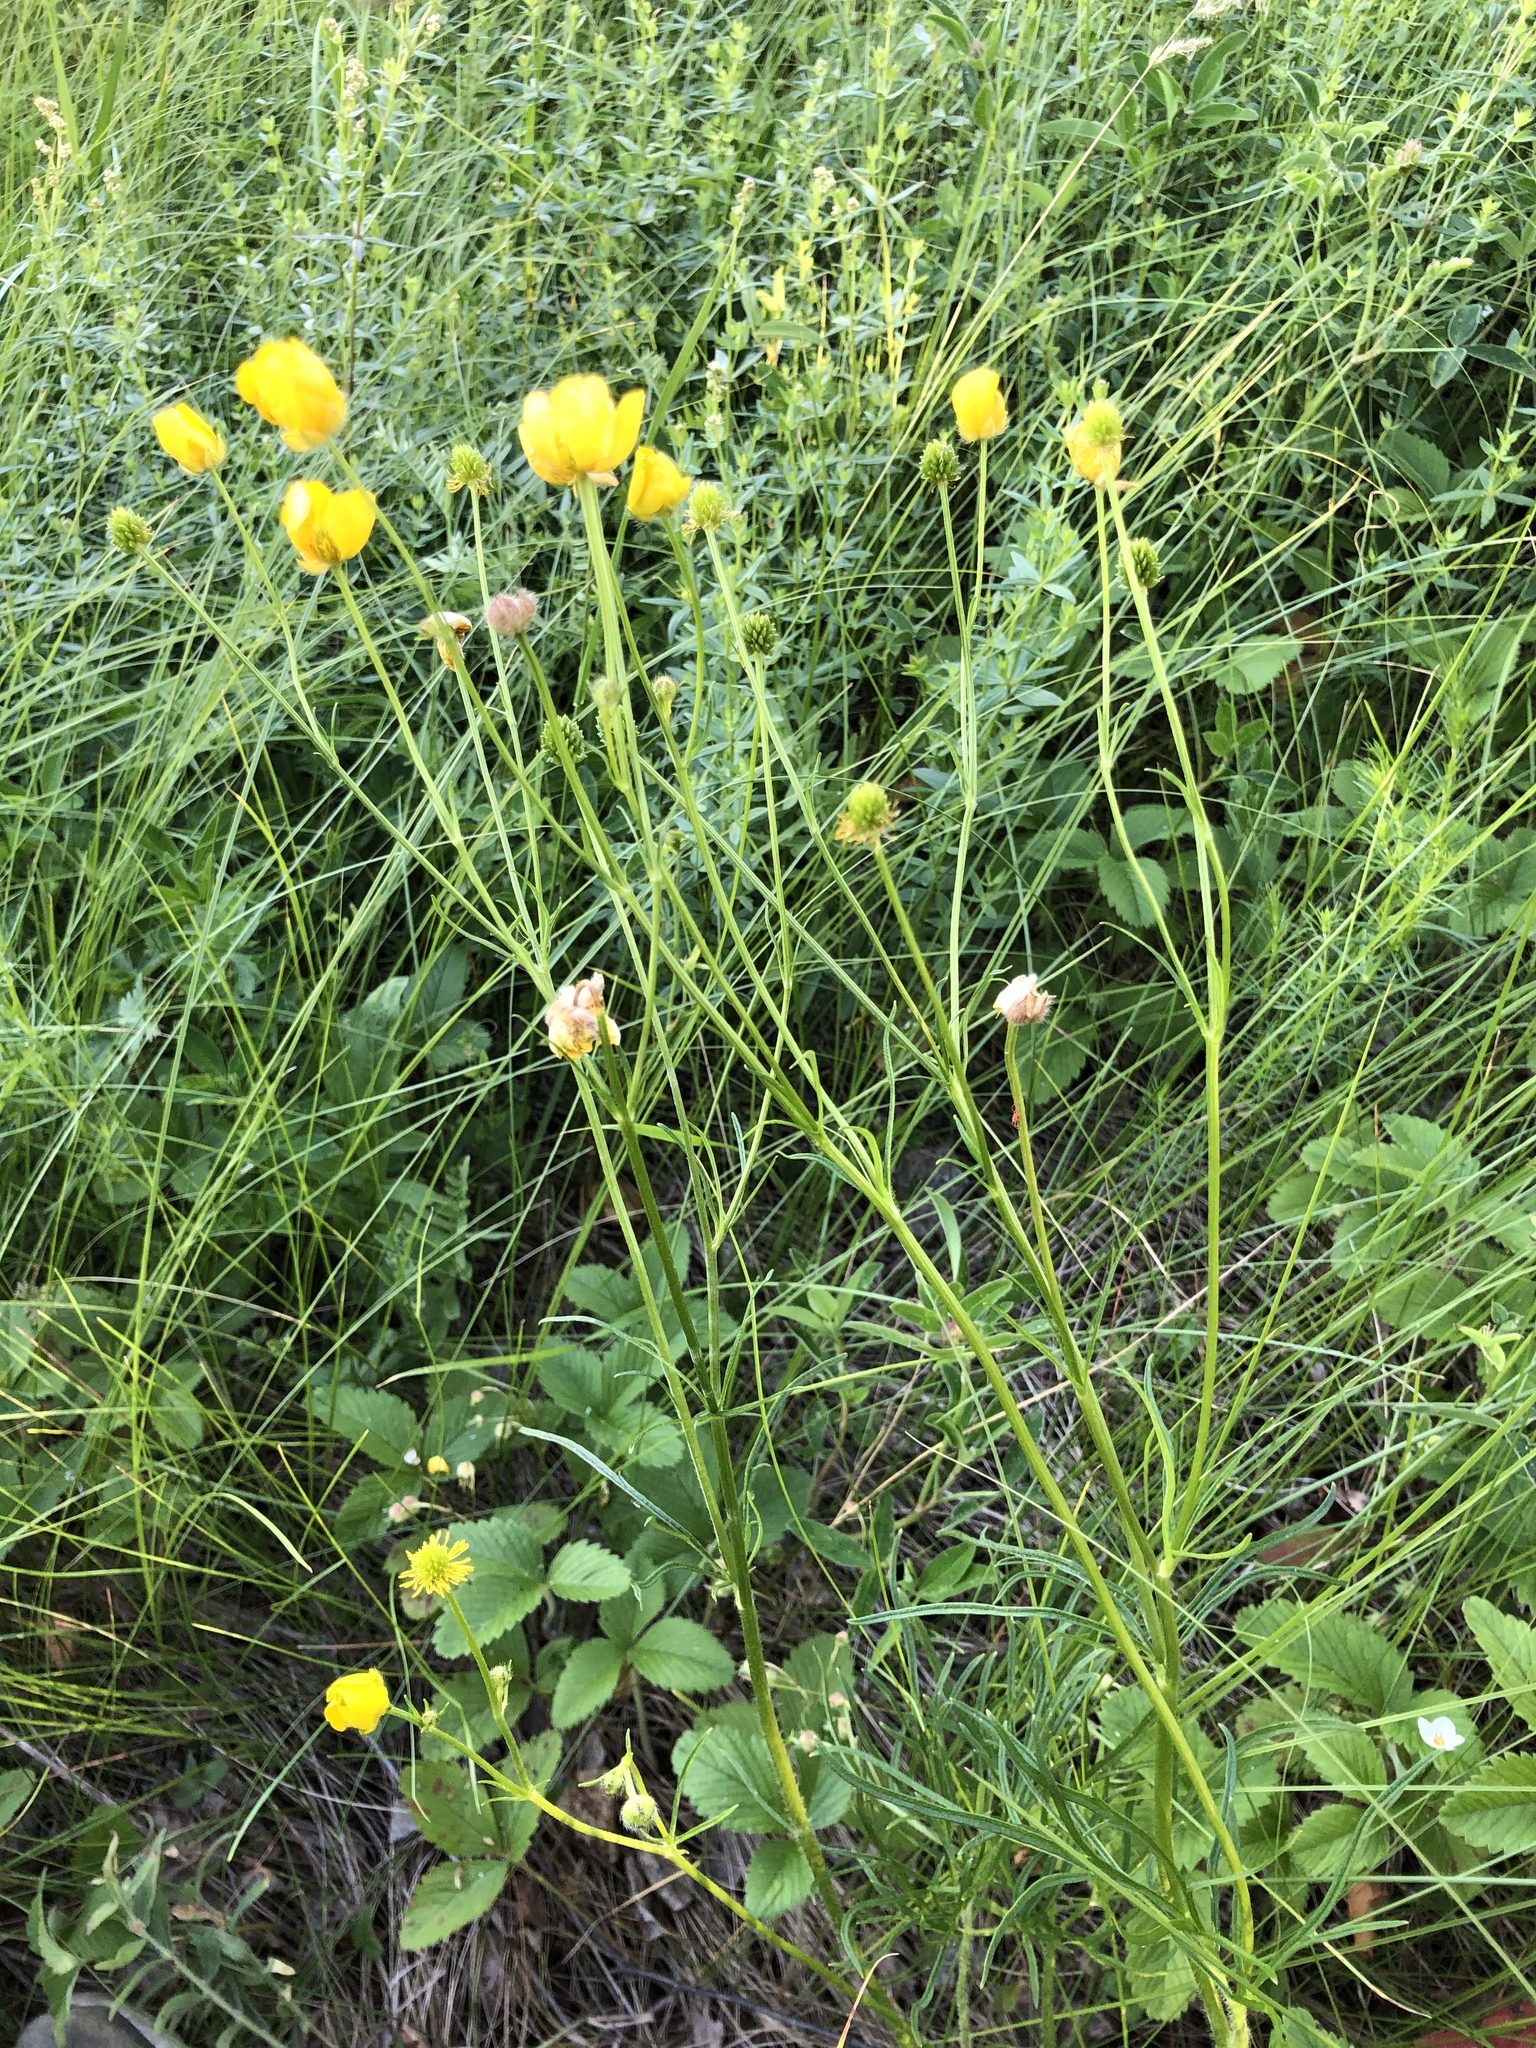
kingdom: Plantae
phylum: Tracheophyta
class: Magnoliopsida
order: Ranunculales
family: Ranunculaceae
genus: Ranunculus
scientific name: Ranunculus polyanthemos
